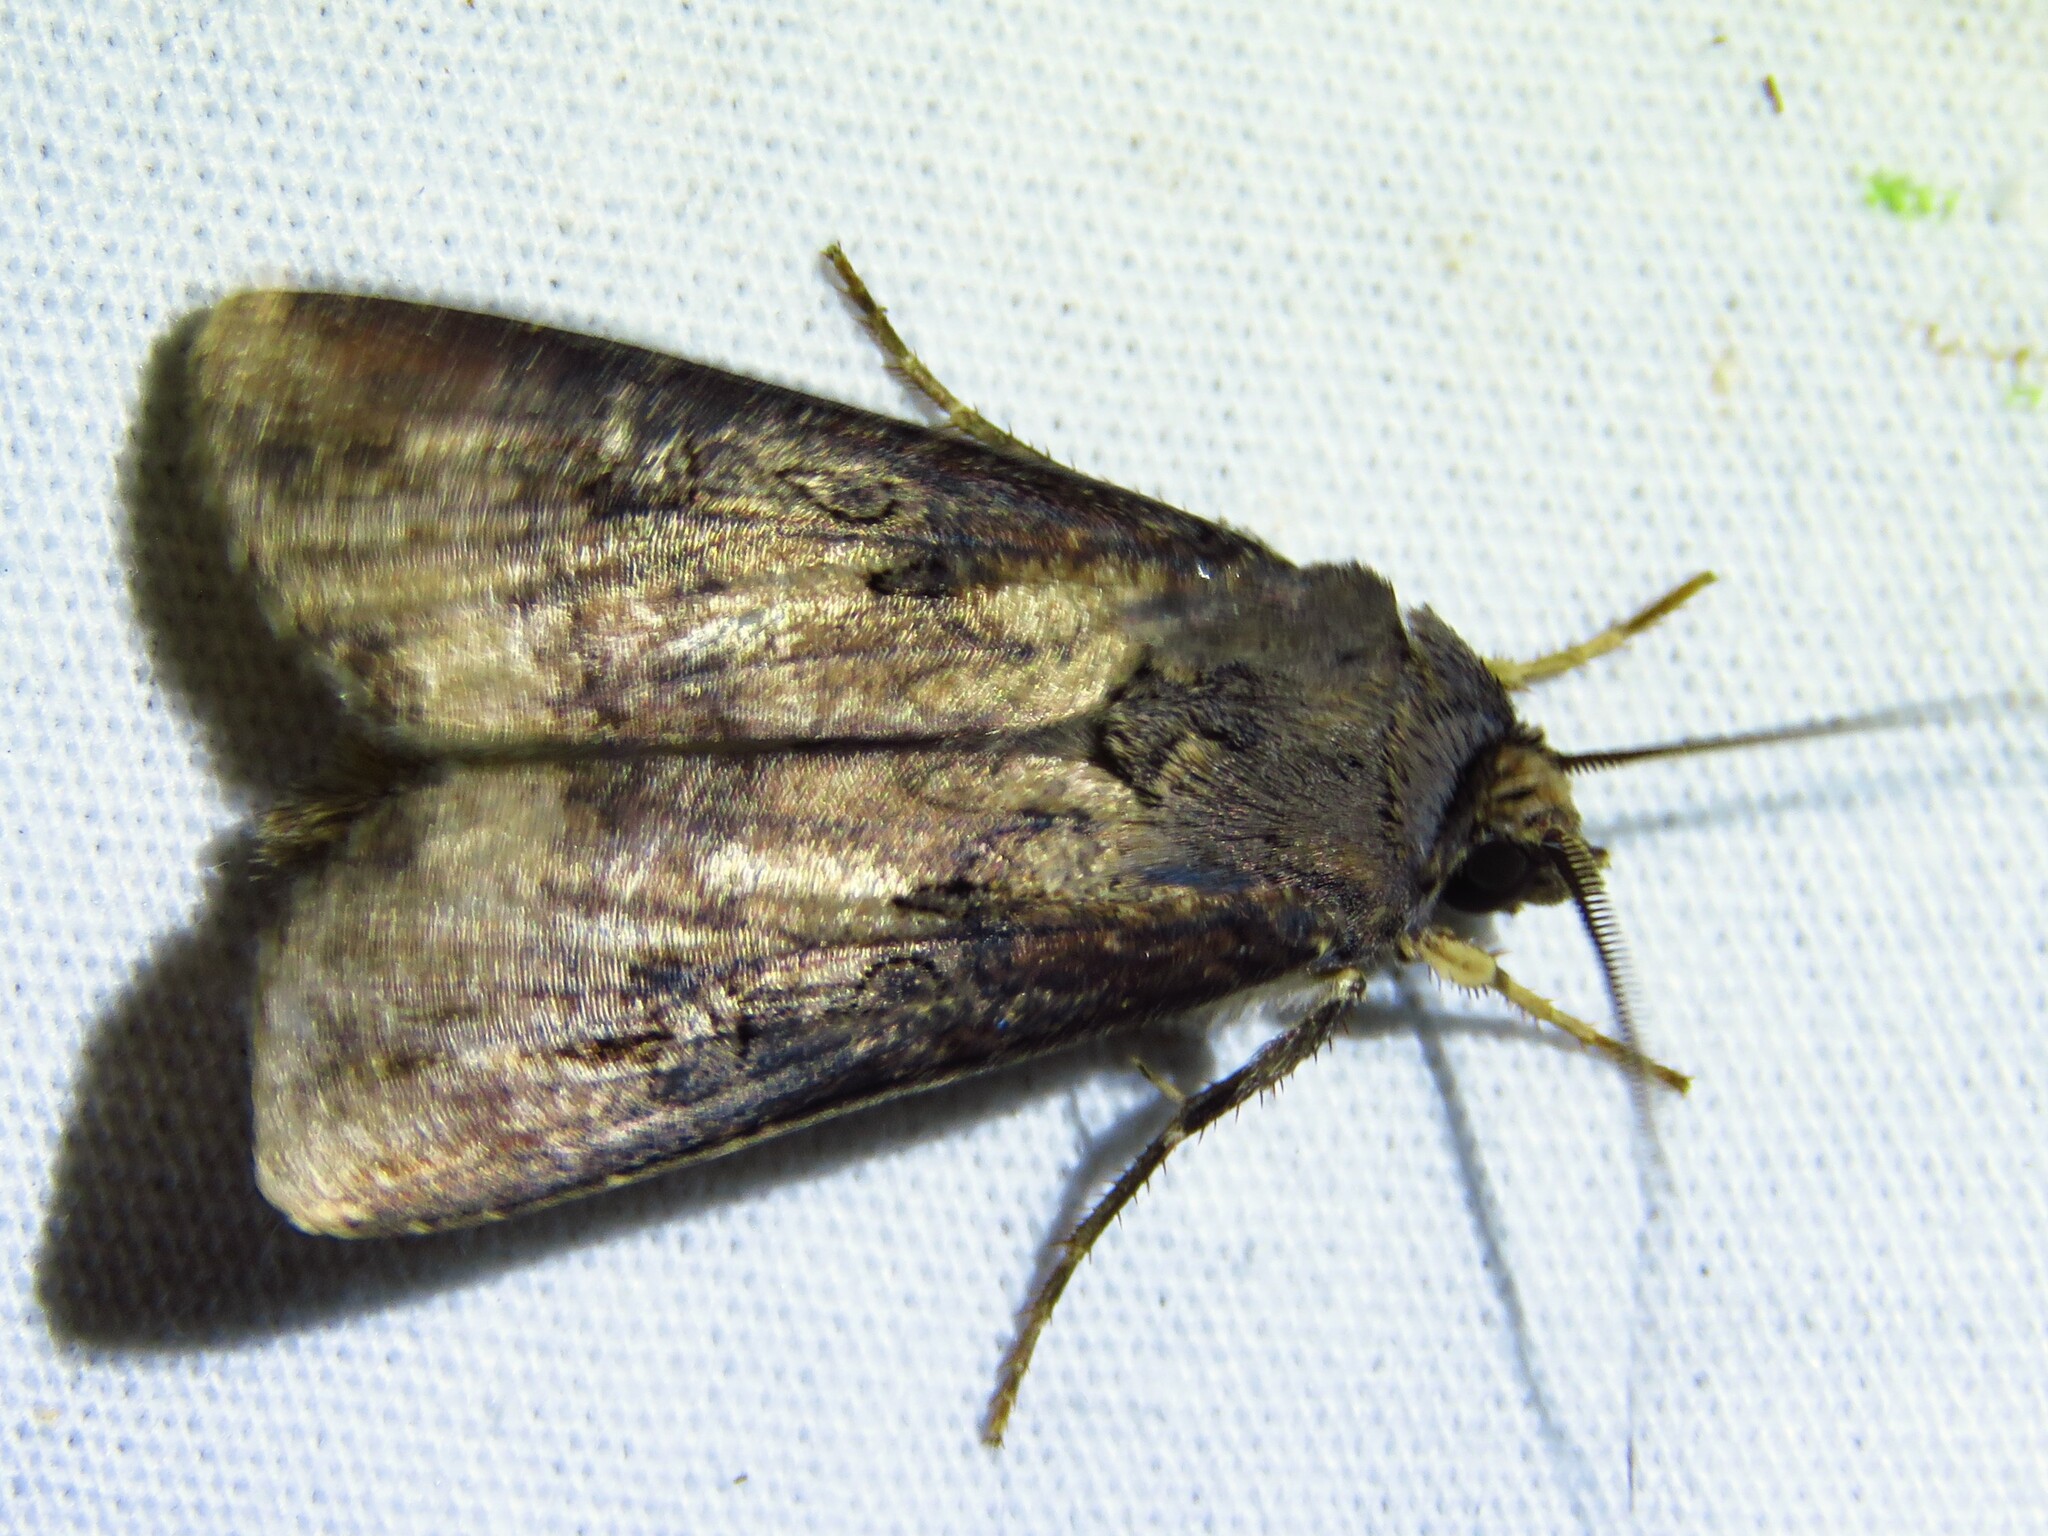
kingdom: Animalia
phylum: Arthropoda
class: Insecta
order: Lepidoptera
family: Noctuidae
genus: Agrotis
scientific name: Agrotis ipsilon
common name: Dark sword-grass
